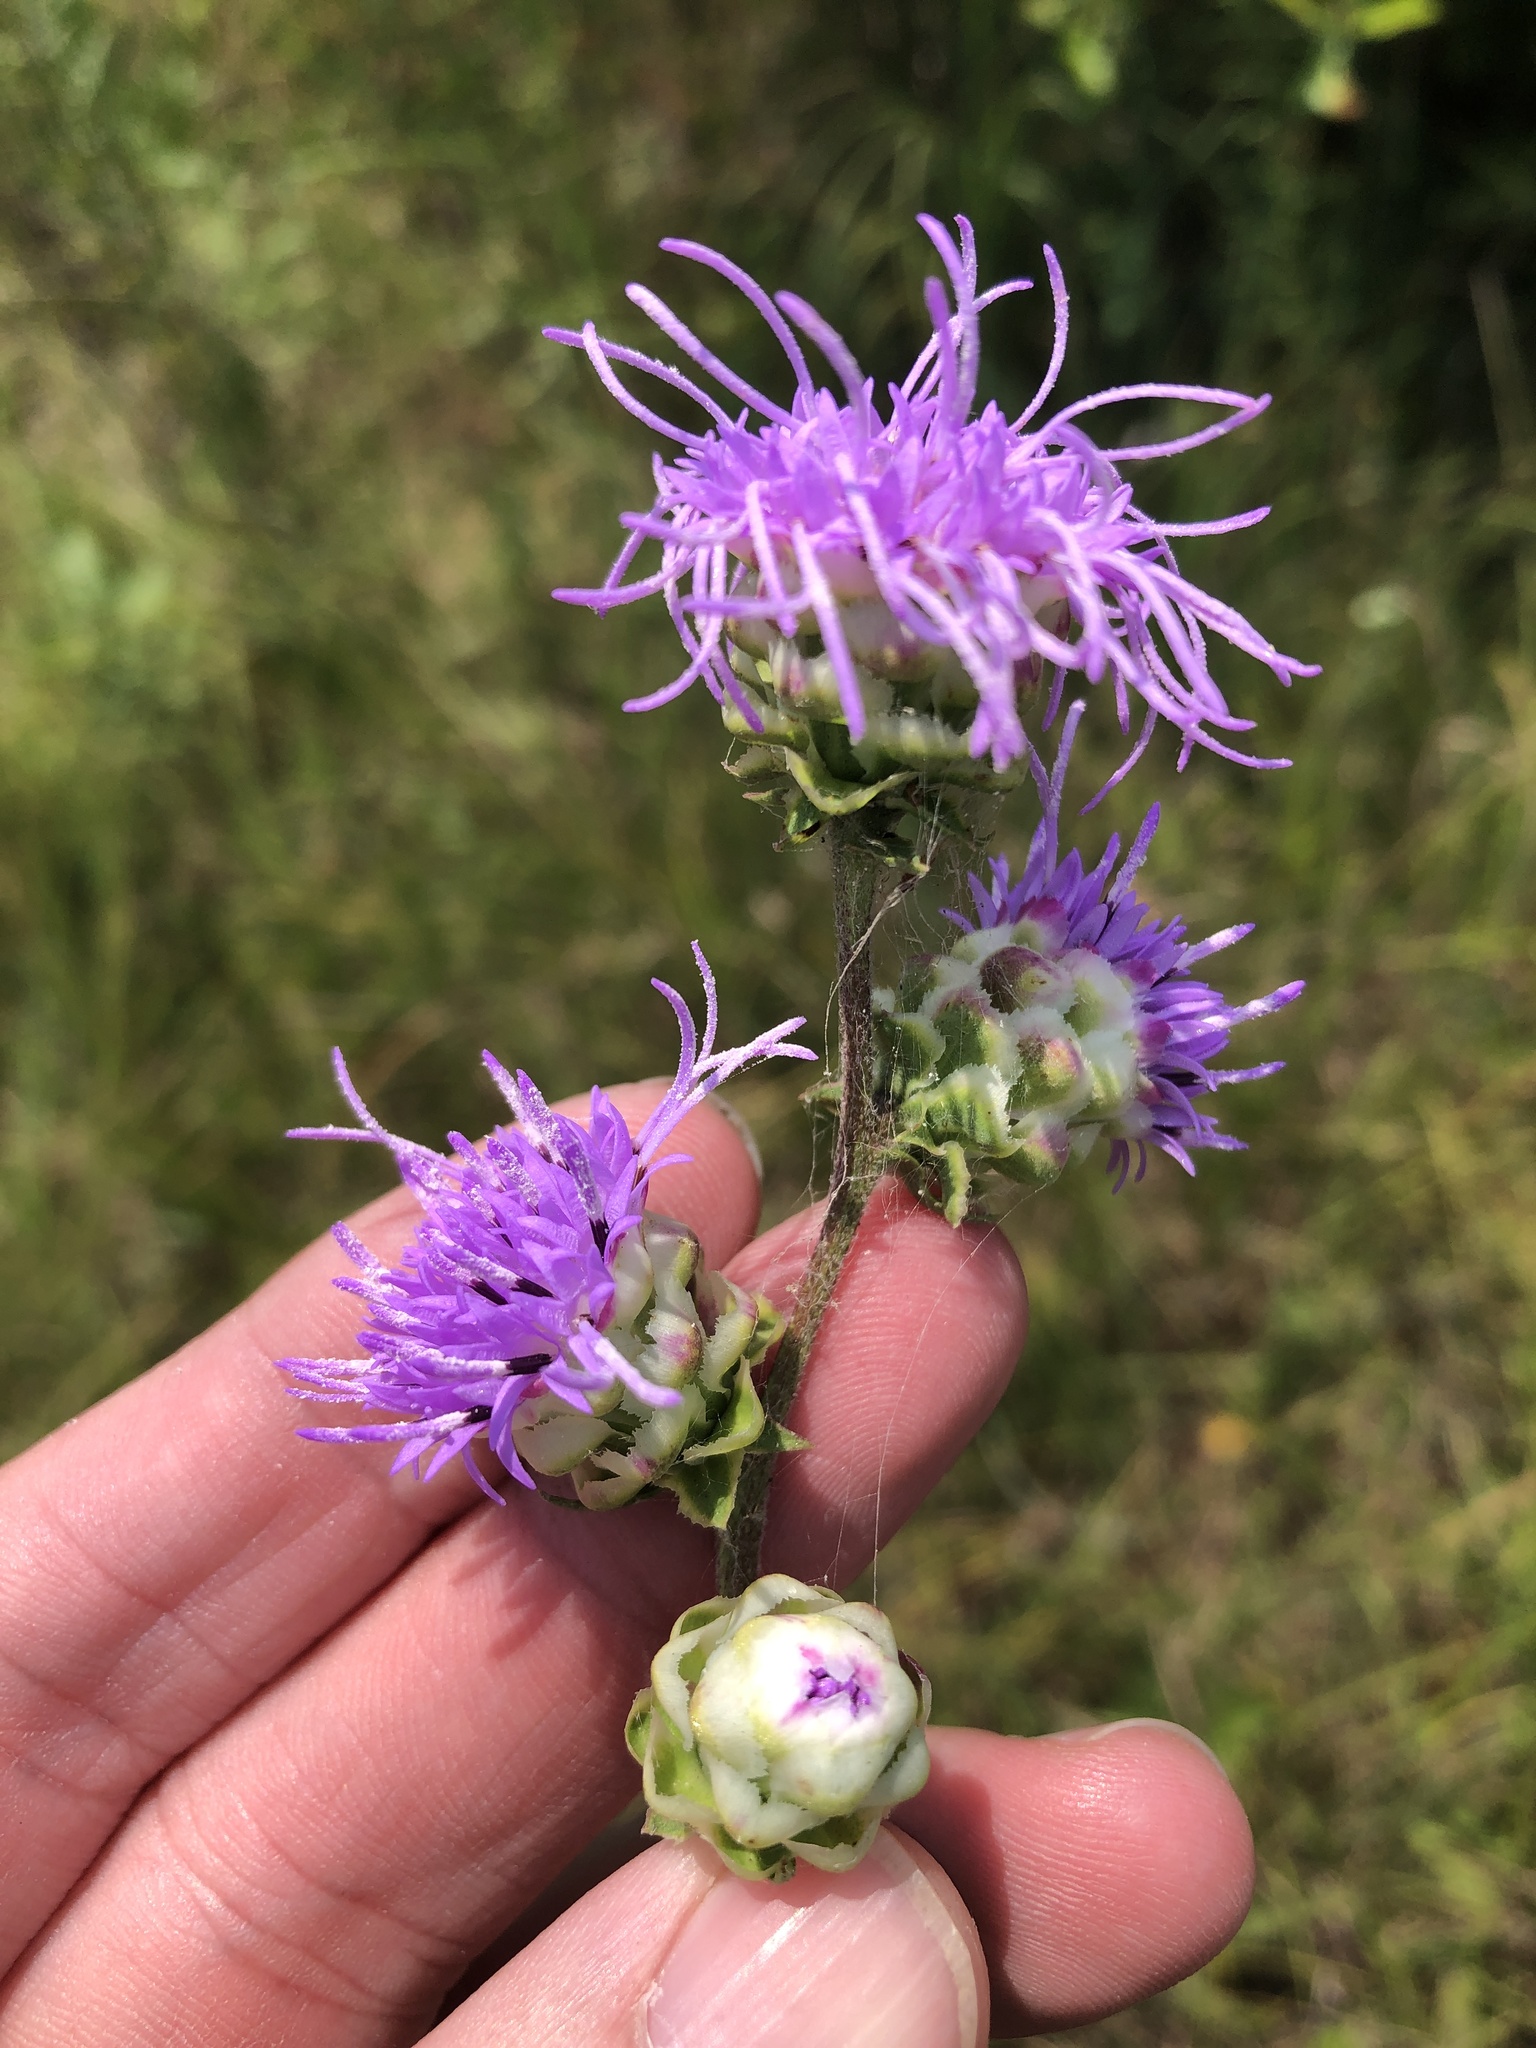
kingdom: Plantae
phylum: Tracheophyta
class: Magnoliopsida
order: Asterales
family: Asteraceae
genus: Liatris
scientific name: Liatris aspera
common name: Lacerate blazing-star
